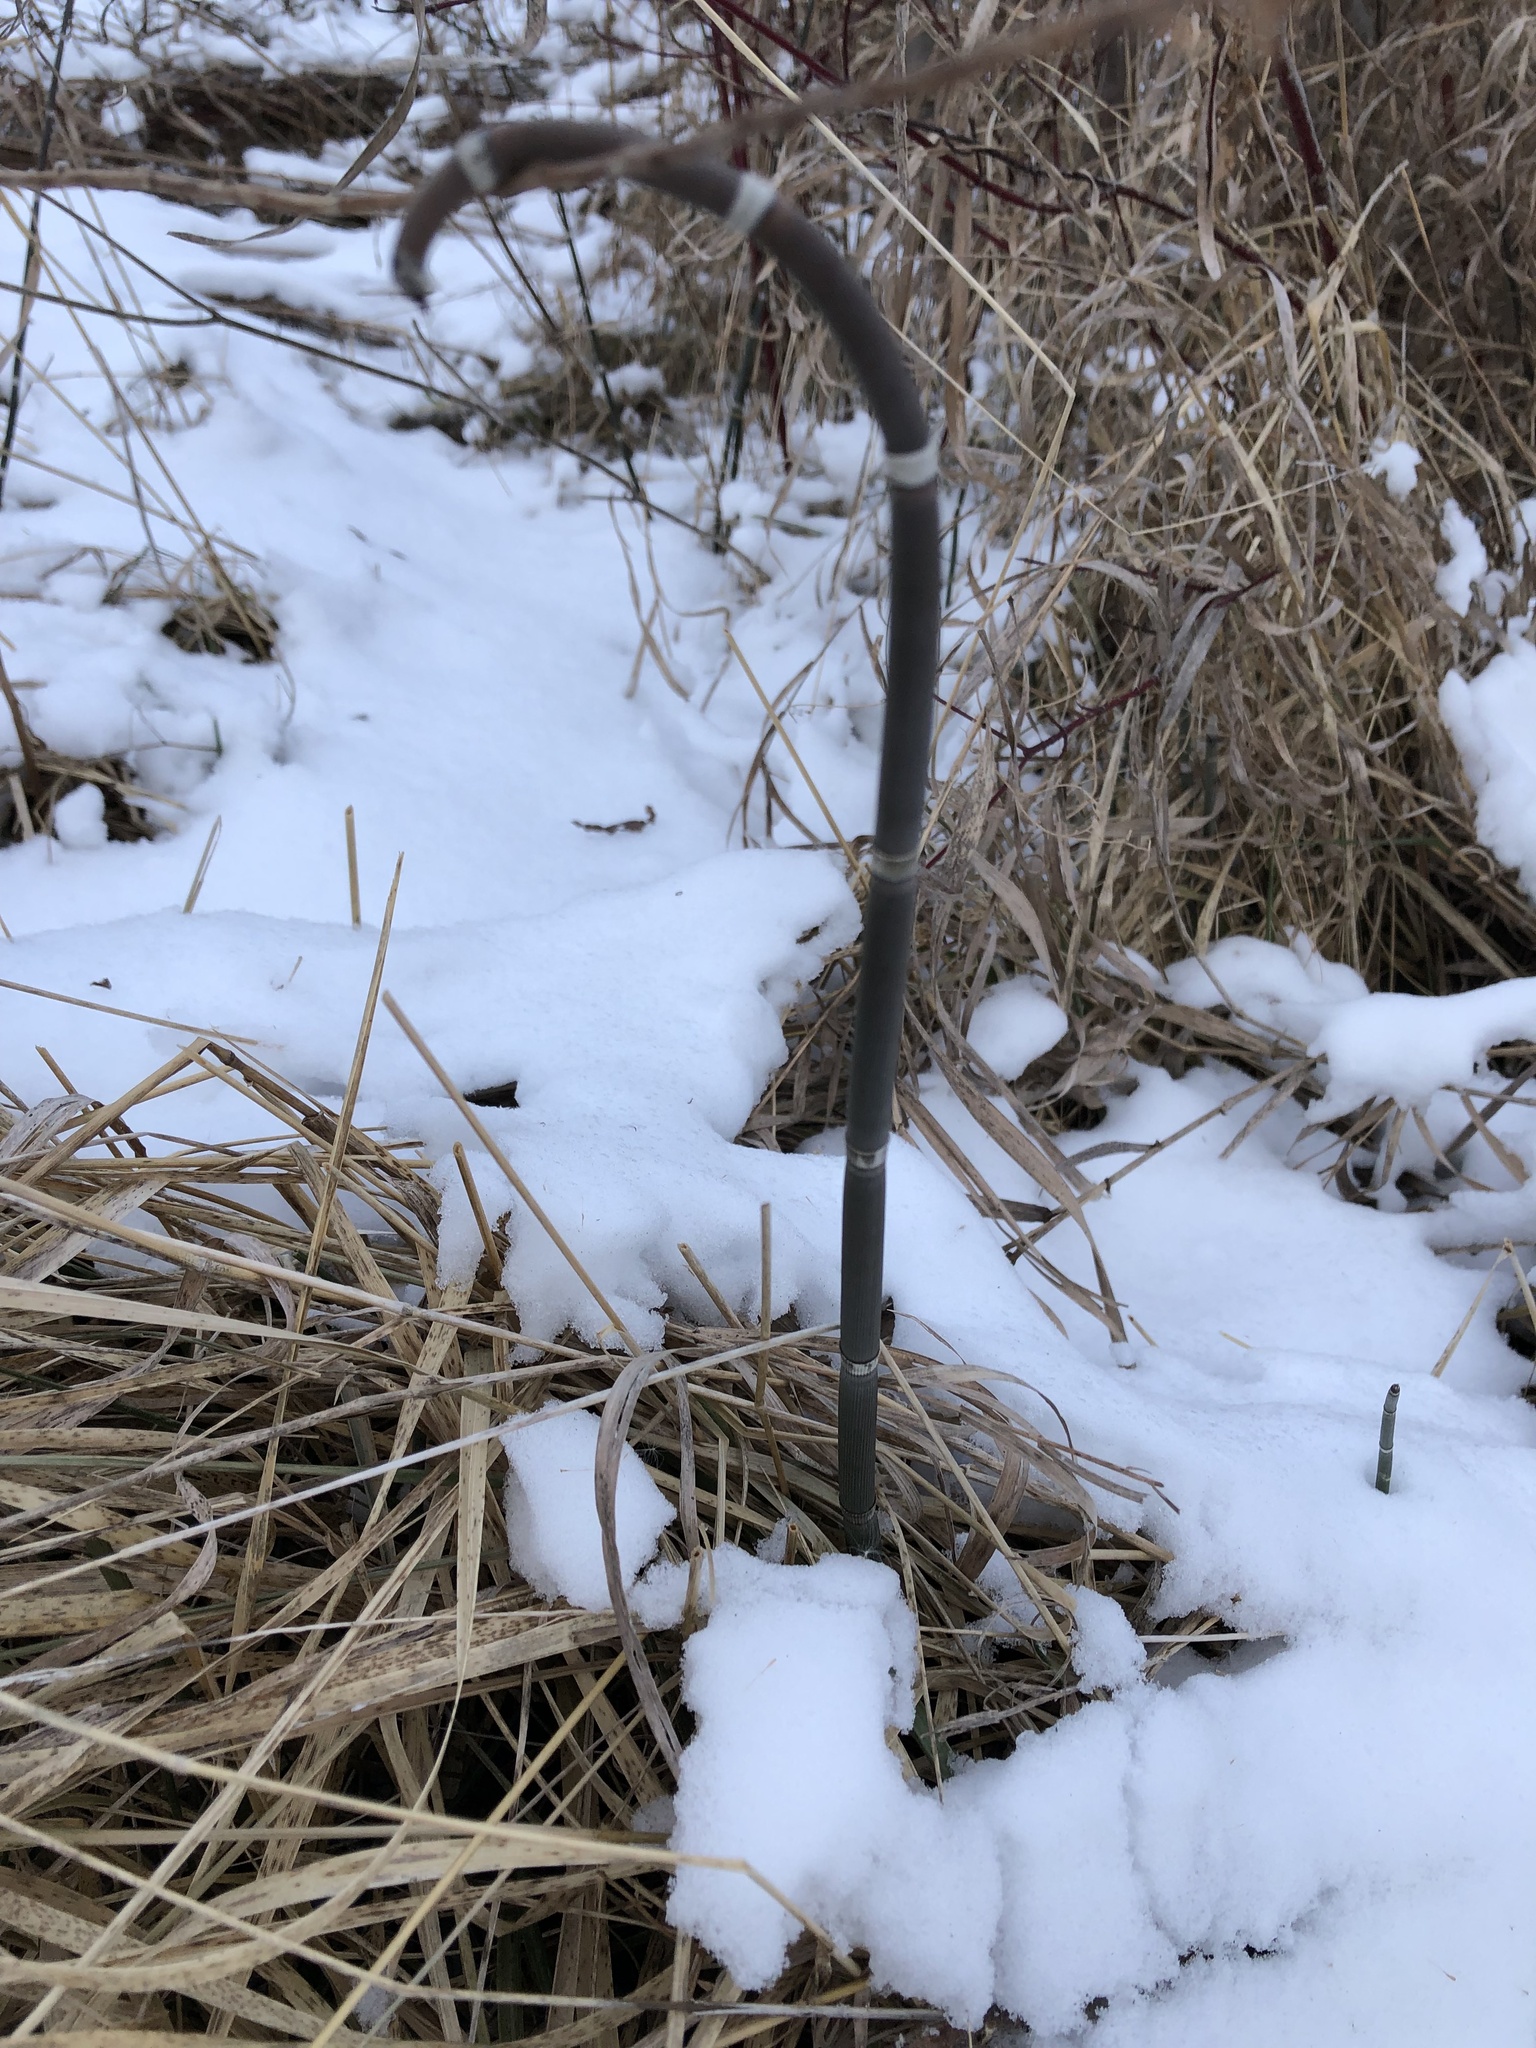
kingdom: Plantae
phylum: Tracheophyta
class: Polypodiopsida
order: Equisetales
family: Equisetaceae
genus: Equisetum
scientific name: Equisetum praealtum
